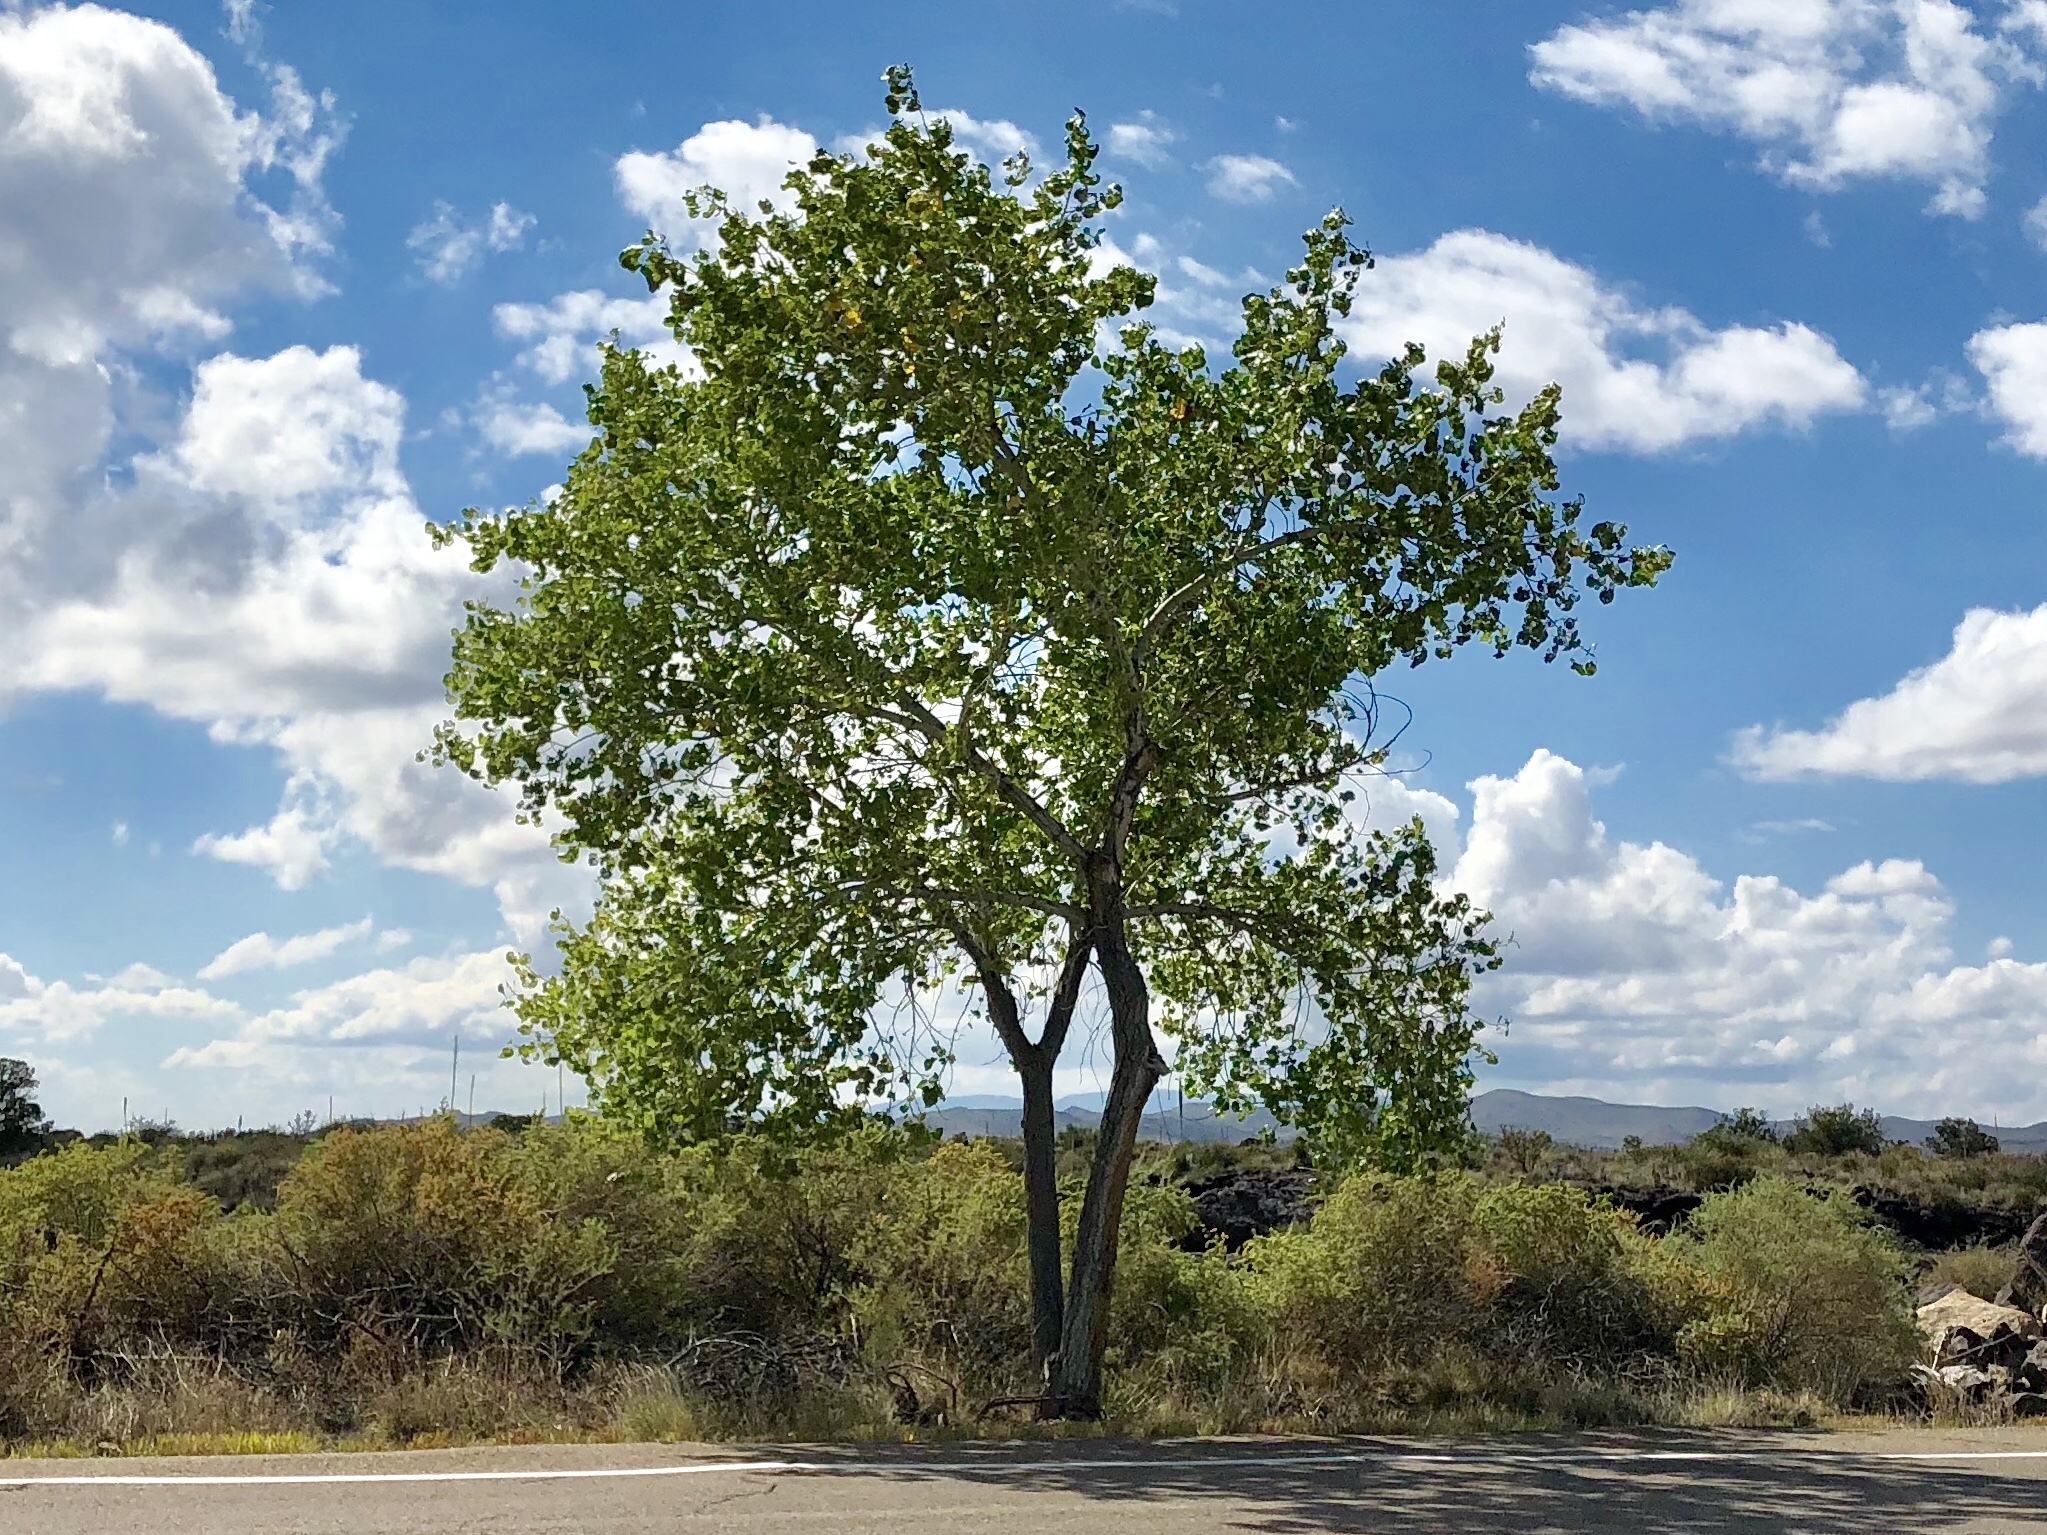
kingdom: Plantae
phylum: Tracheophyta
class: Magnoliopsida
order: Malpighiales
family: Salicaceae
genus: Populus
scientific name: Populus fremontii
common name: Fremont's cottonwood
